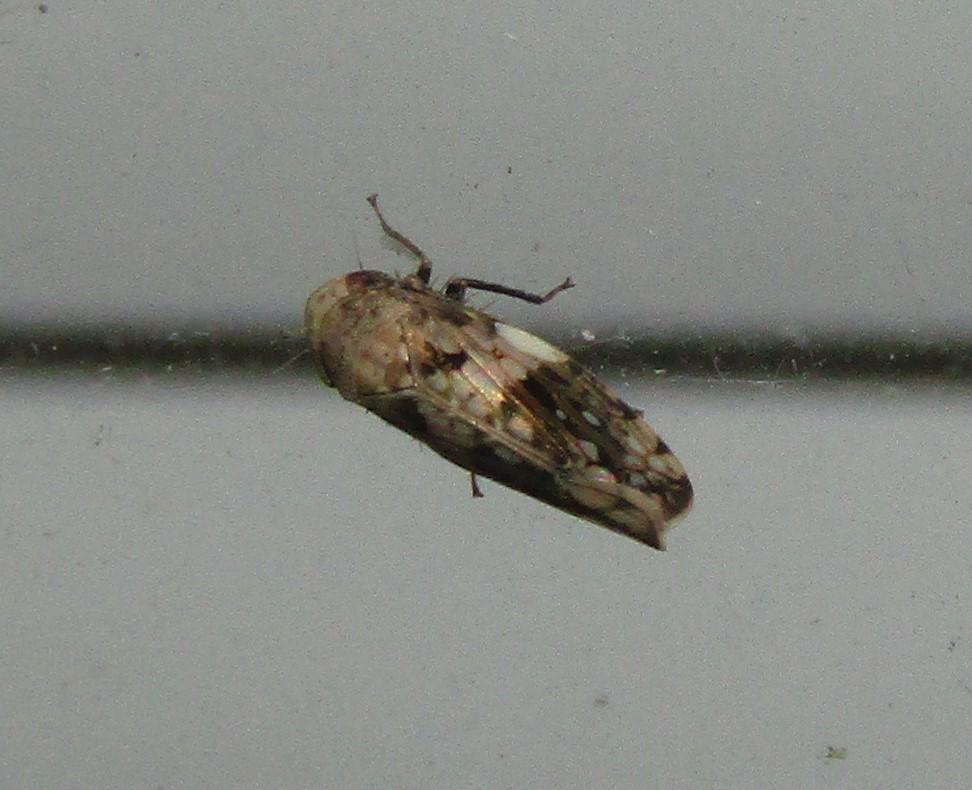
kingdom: Animalia
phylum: Arthropoda
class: Insecta
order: Hemiptera
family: Cicadellidae
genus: Menosoma
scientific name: Menosoma cinctum
